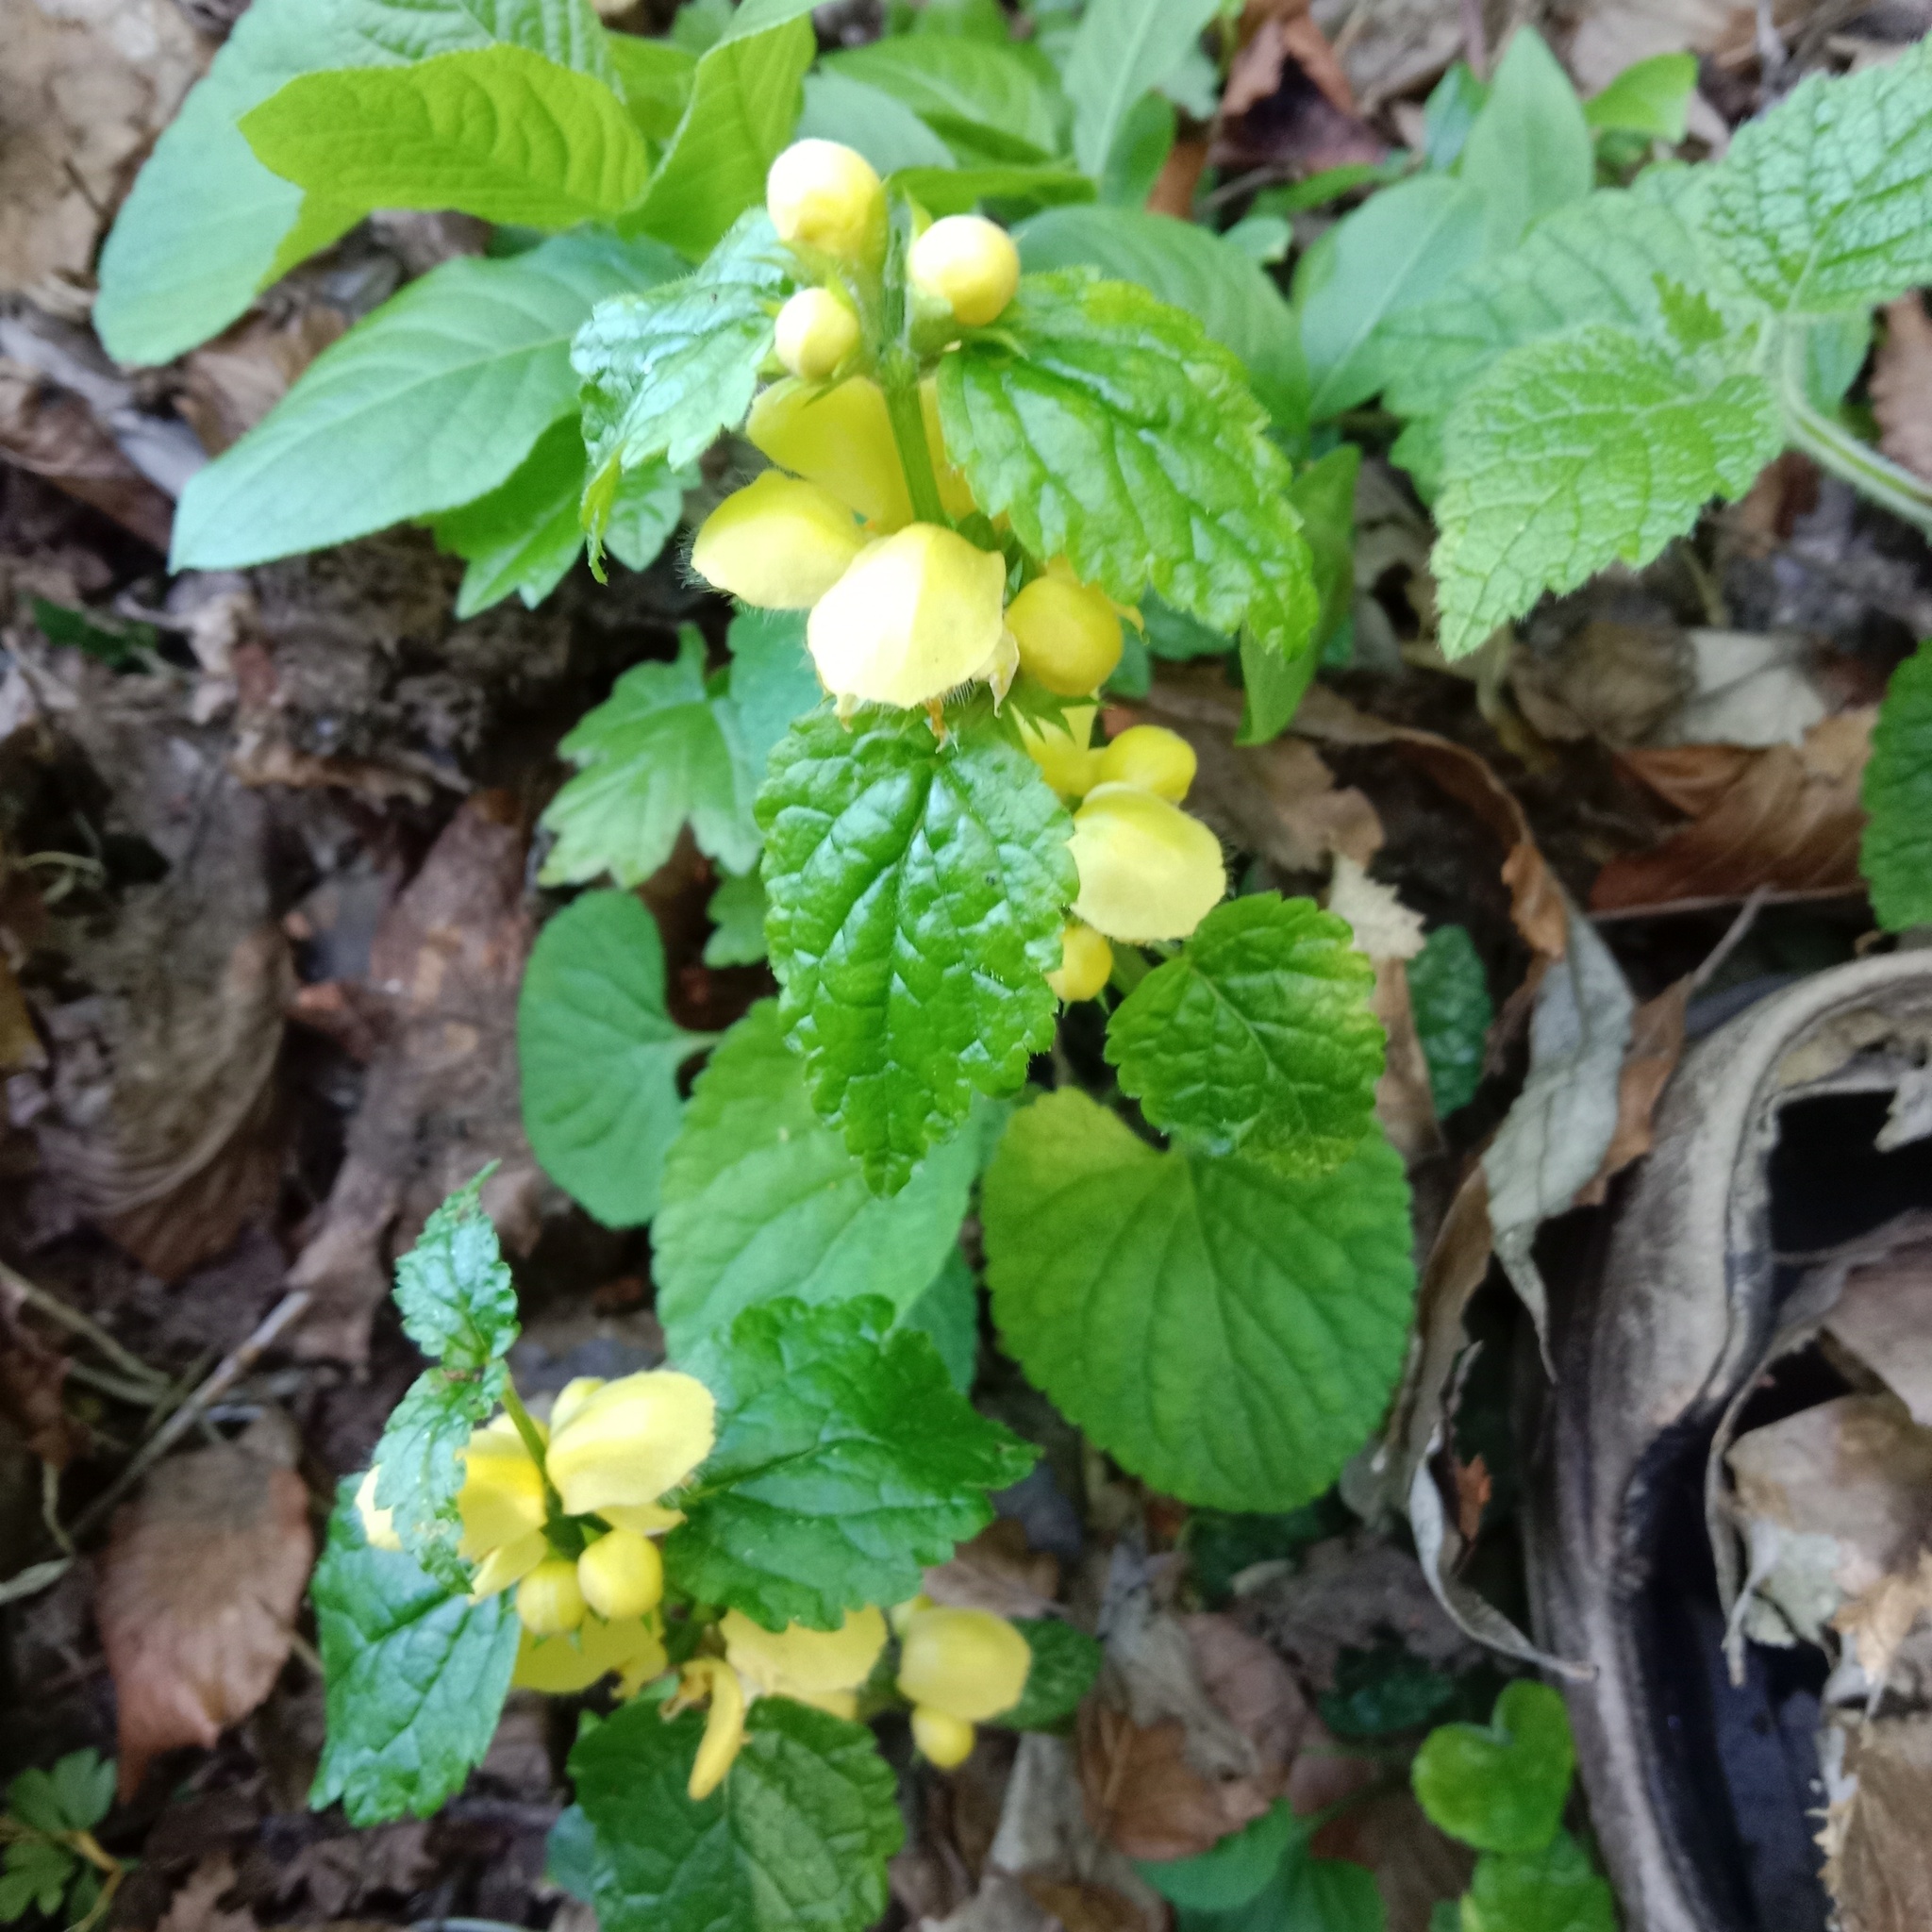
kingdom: Plantae
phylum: Tracheophyta
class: Magnoliopsida
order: Lamiales
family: Lamiaceae
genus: Lamium
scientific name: Lamium galeobdolon
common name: Yellow archangel
